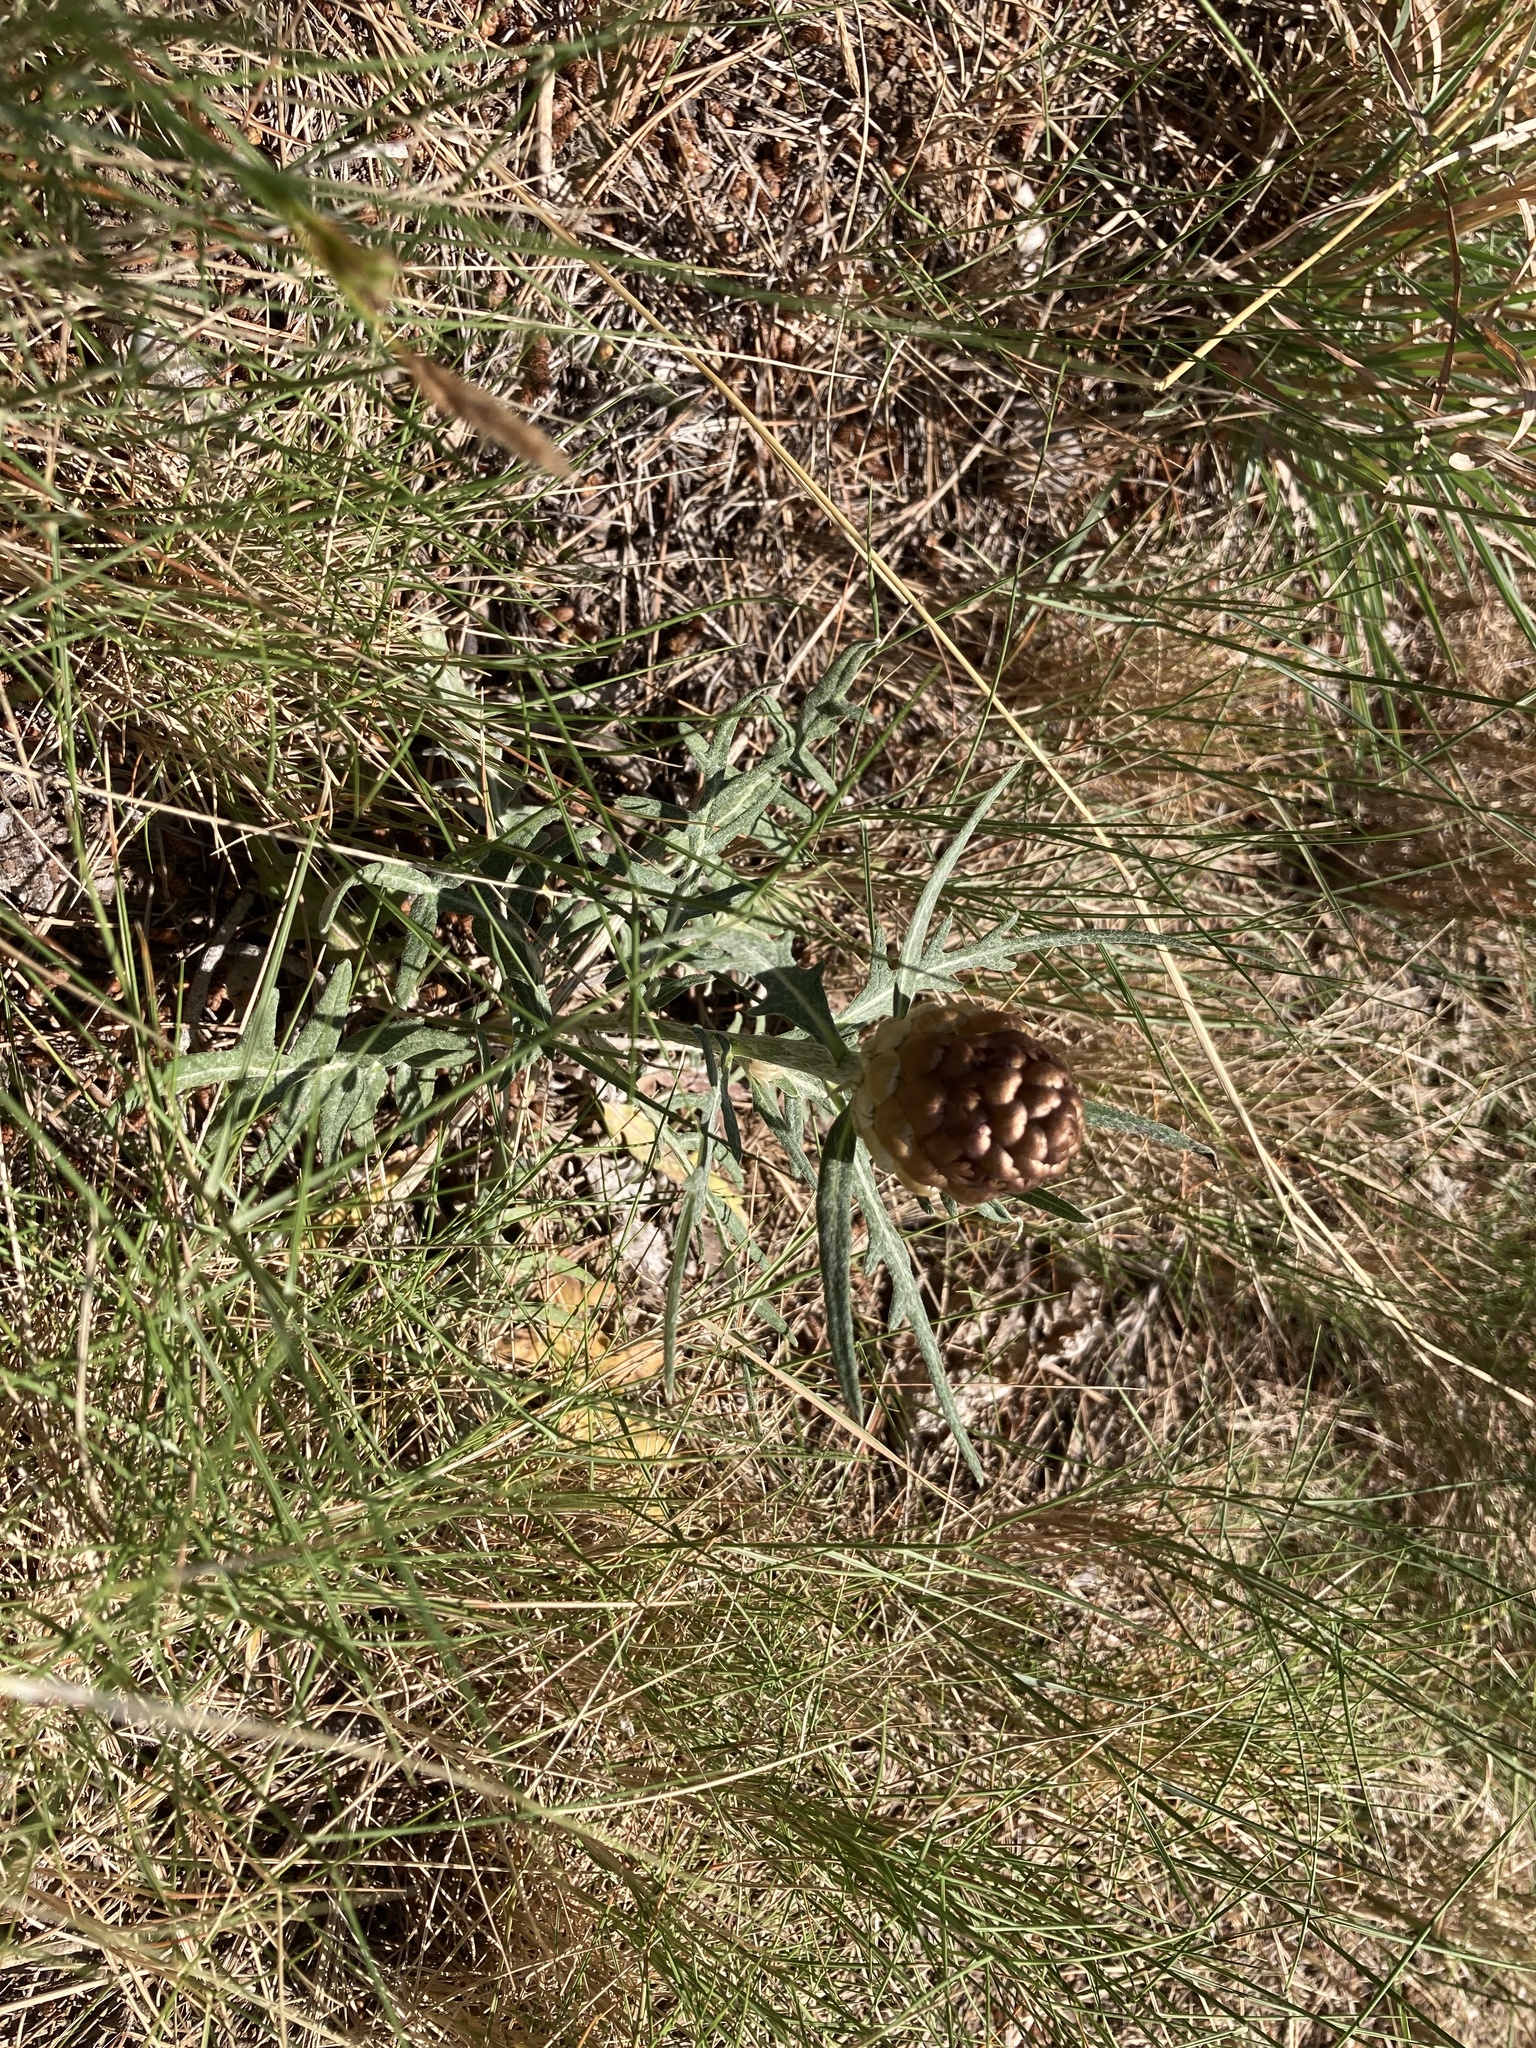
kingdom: Plantae
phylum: Tracheophyta
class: Magnoliopsida
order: Asterales
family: Asteraceae
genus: Leuzea
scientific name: Leuzea conifera
